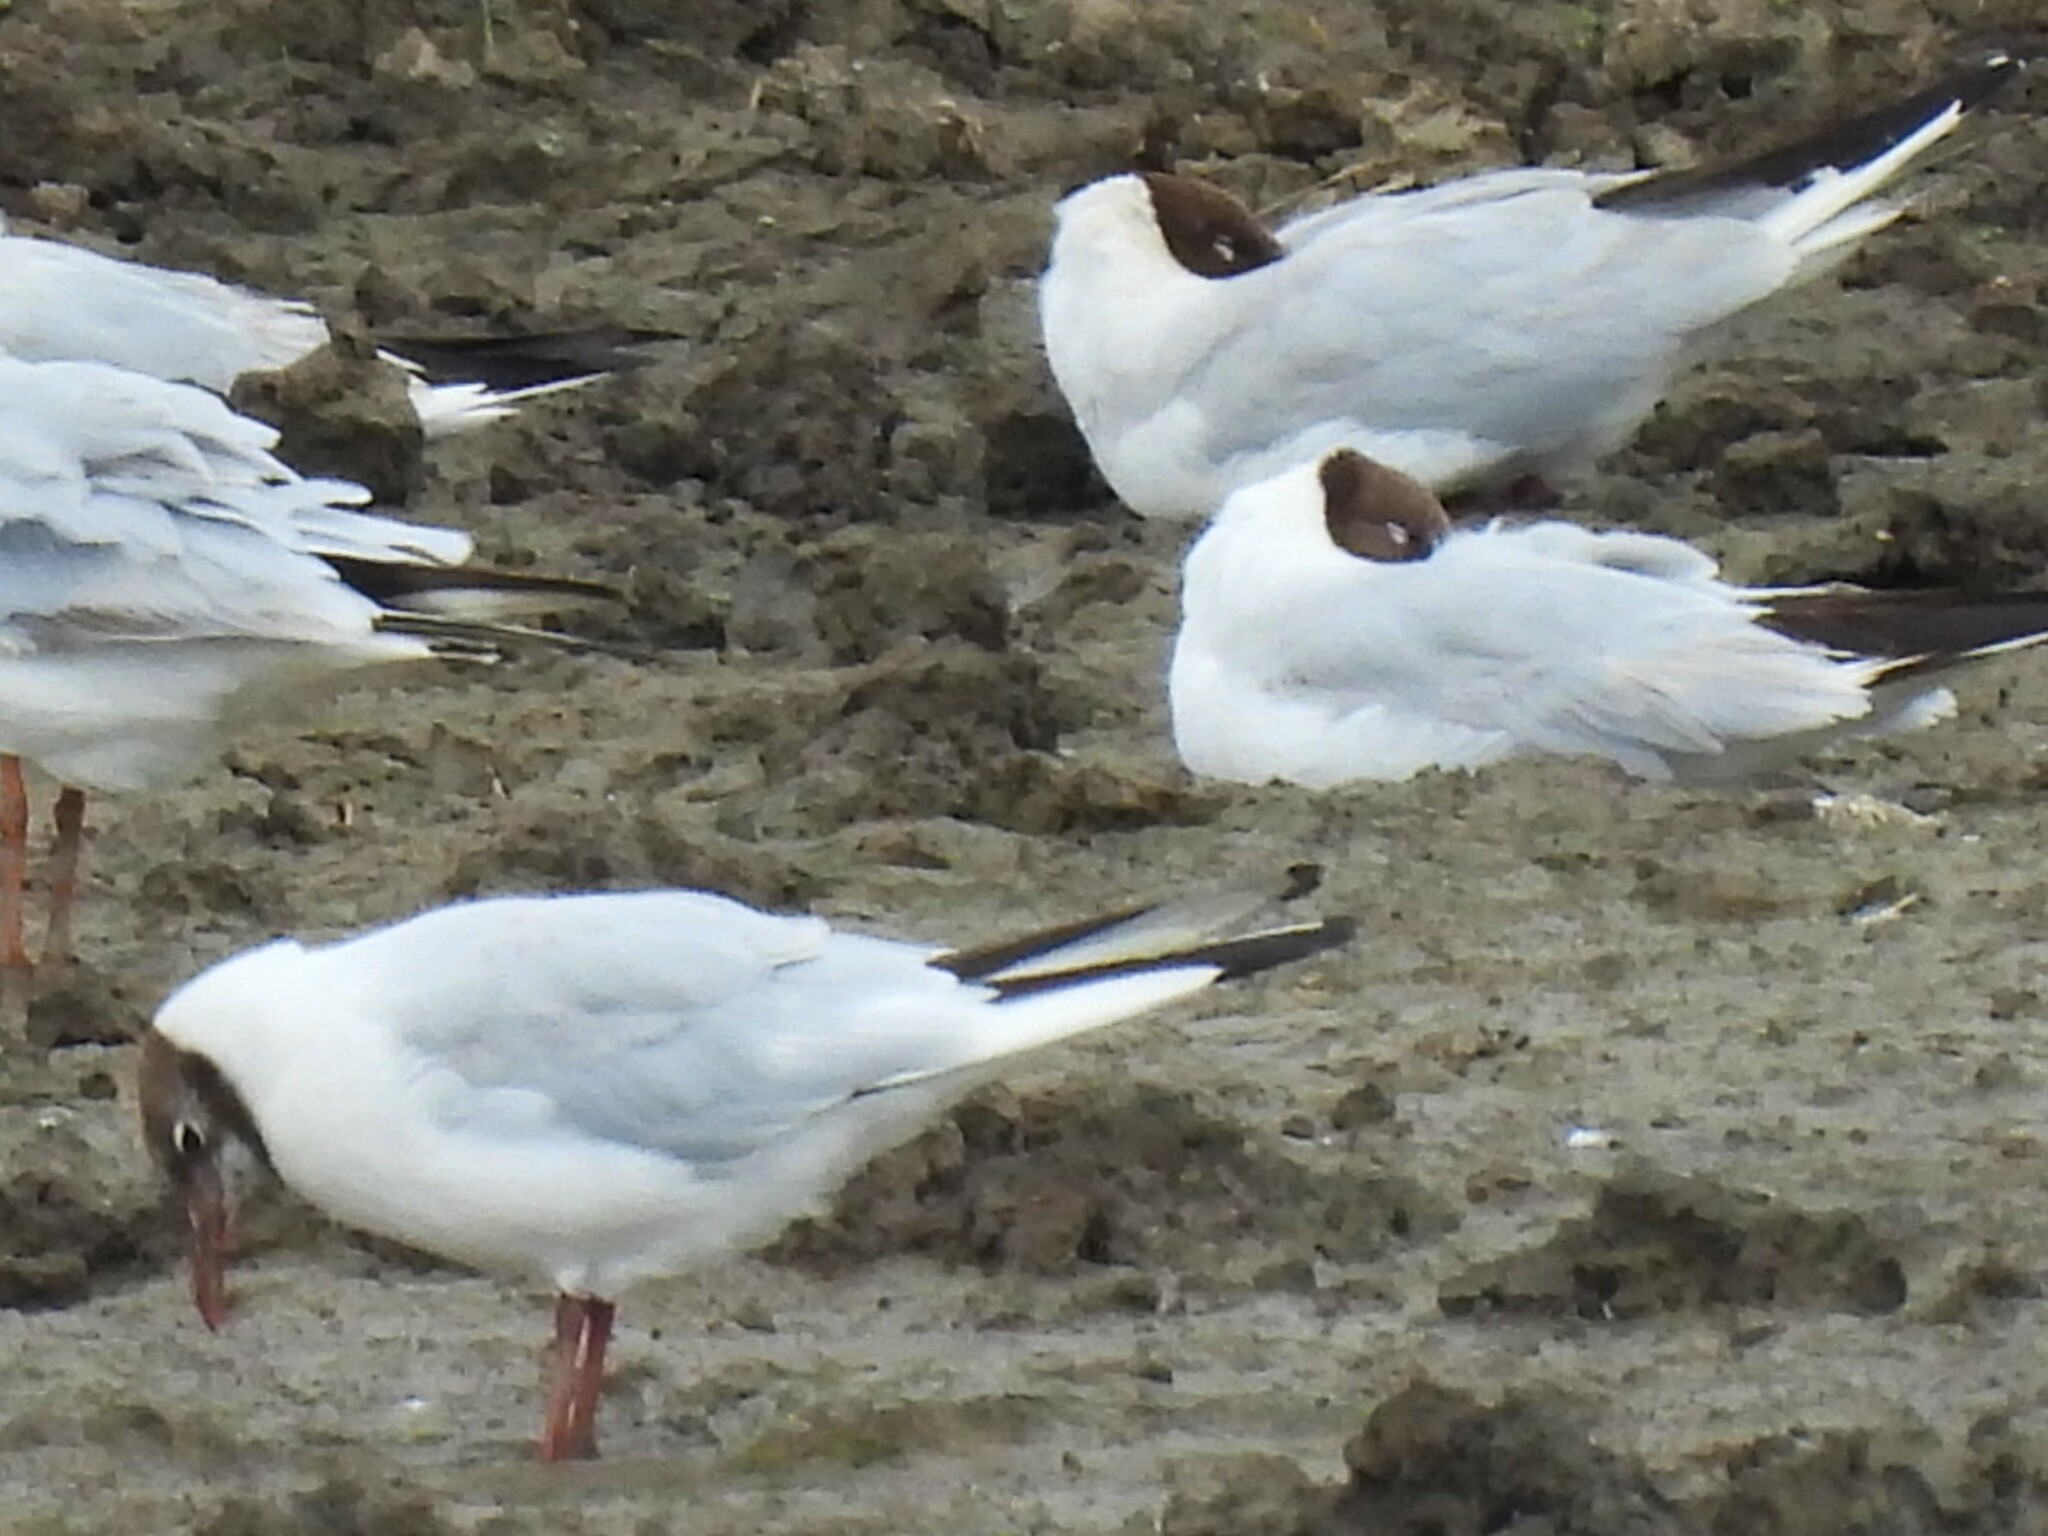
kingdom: Animalia
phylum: Chordata
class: Aves
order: Charadriiformes
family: Laridae
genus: Chroicocephalus
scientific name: Chroicocephalus ridibundus
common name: Black-headed gull
